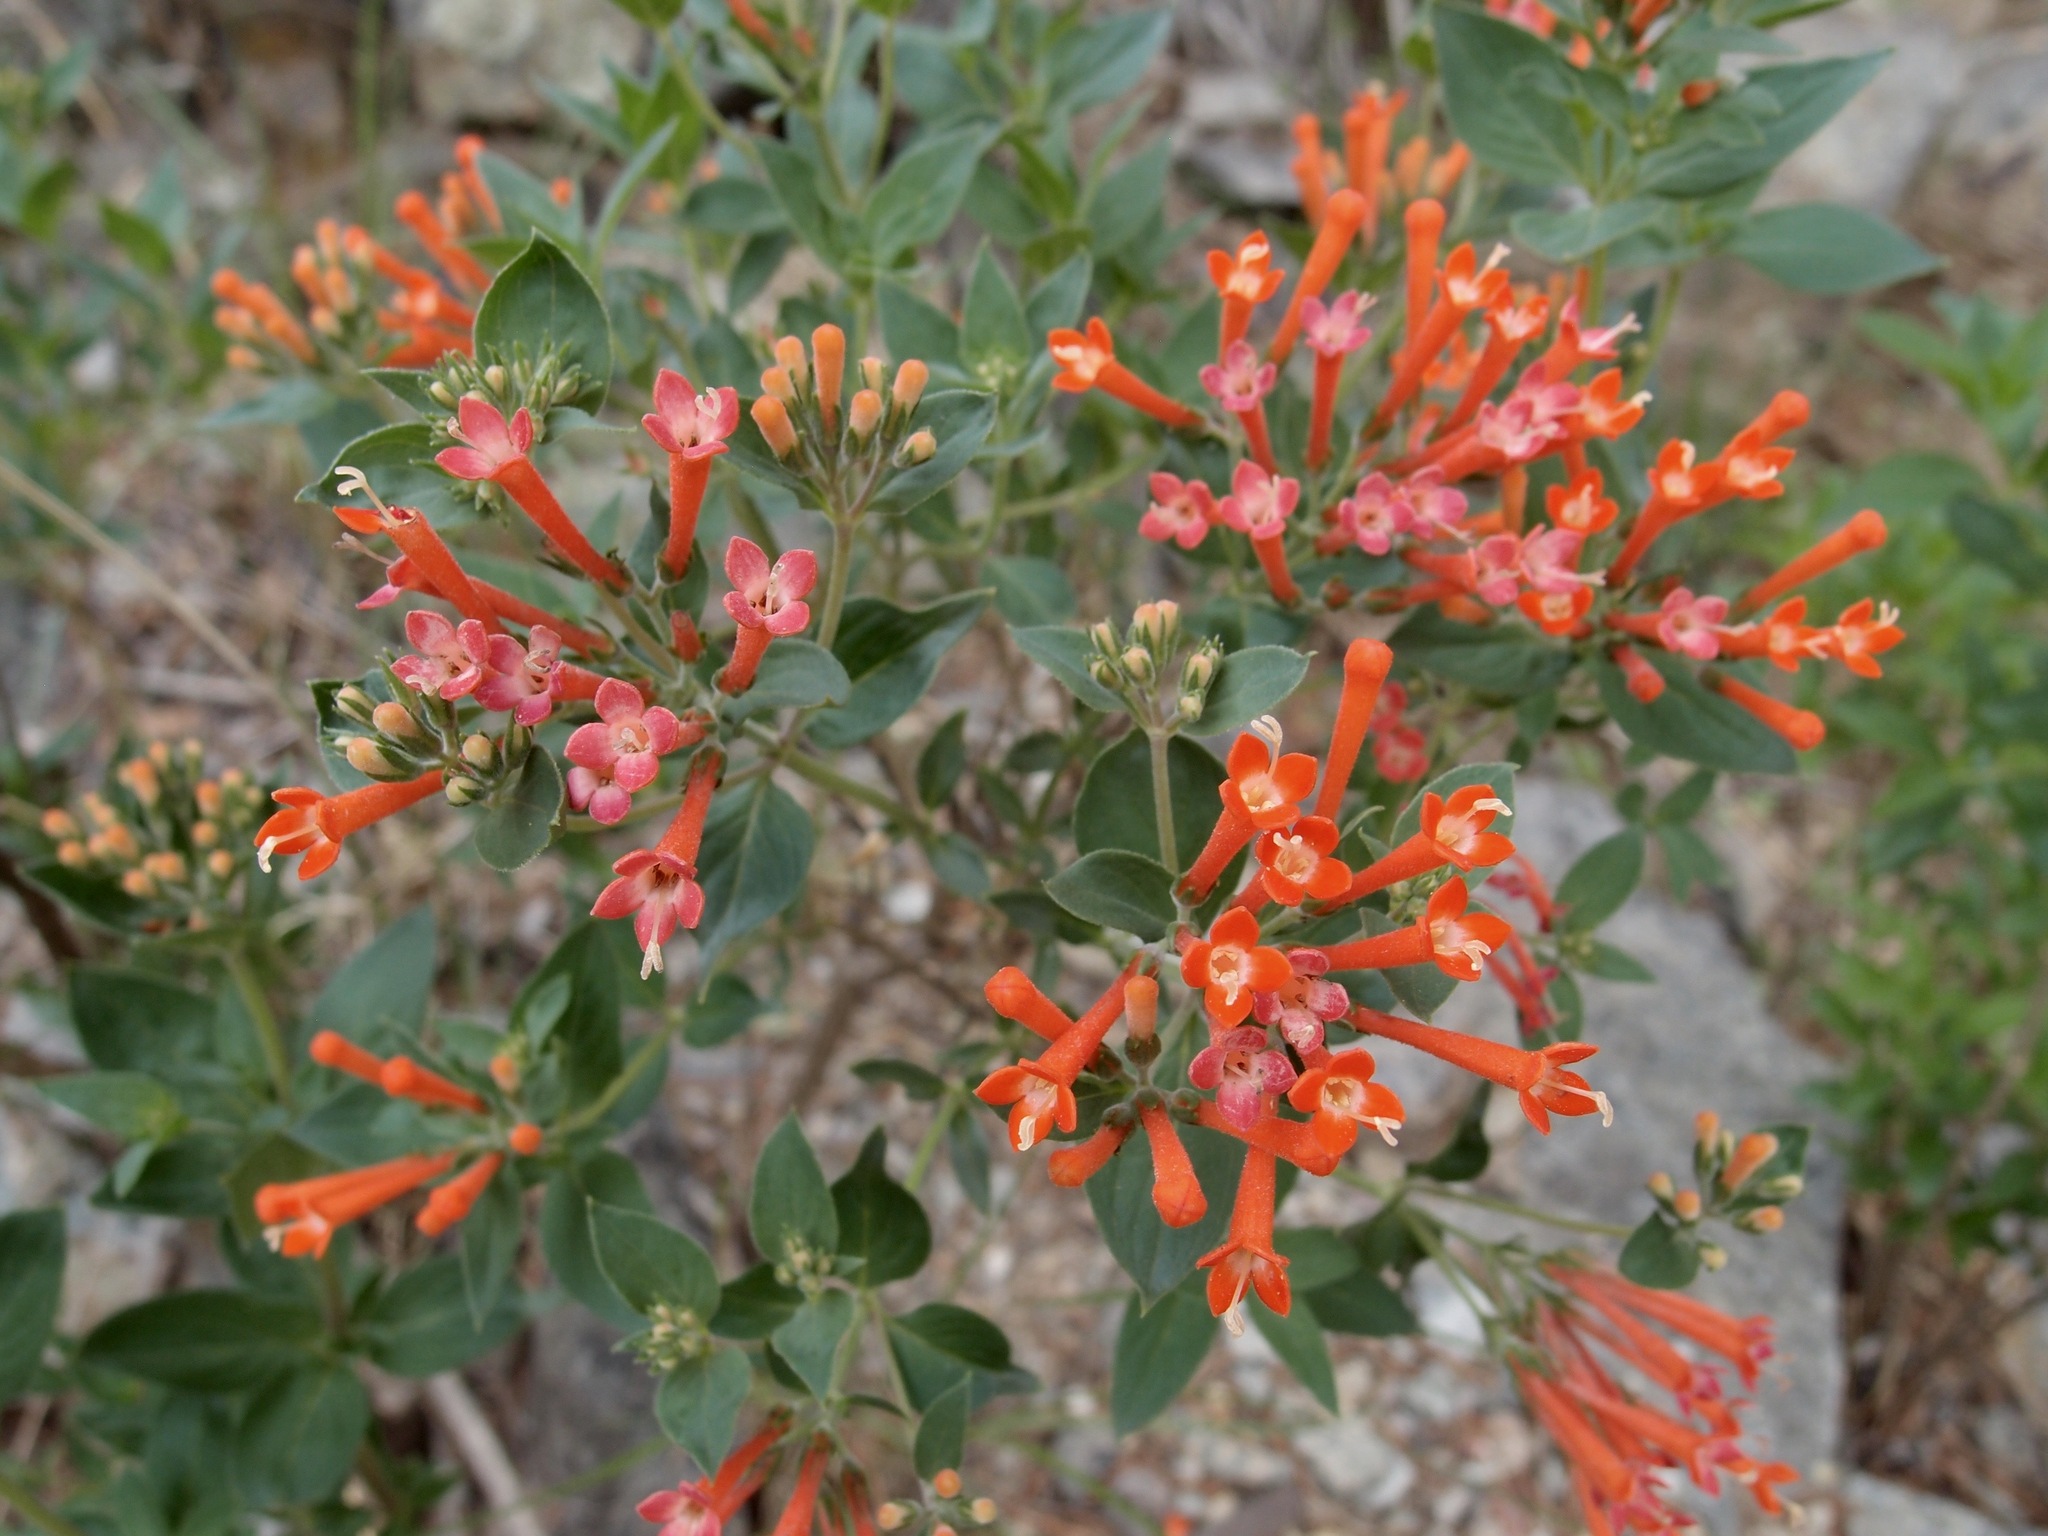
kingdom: Plantae
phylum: Tracheophyta
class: Magnoliopsida
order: Gentianales
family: Rubiaceae
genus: Bouvardia
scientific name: Bouvardia ternifolia
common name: Scarlet bouvardia
